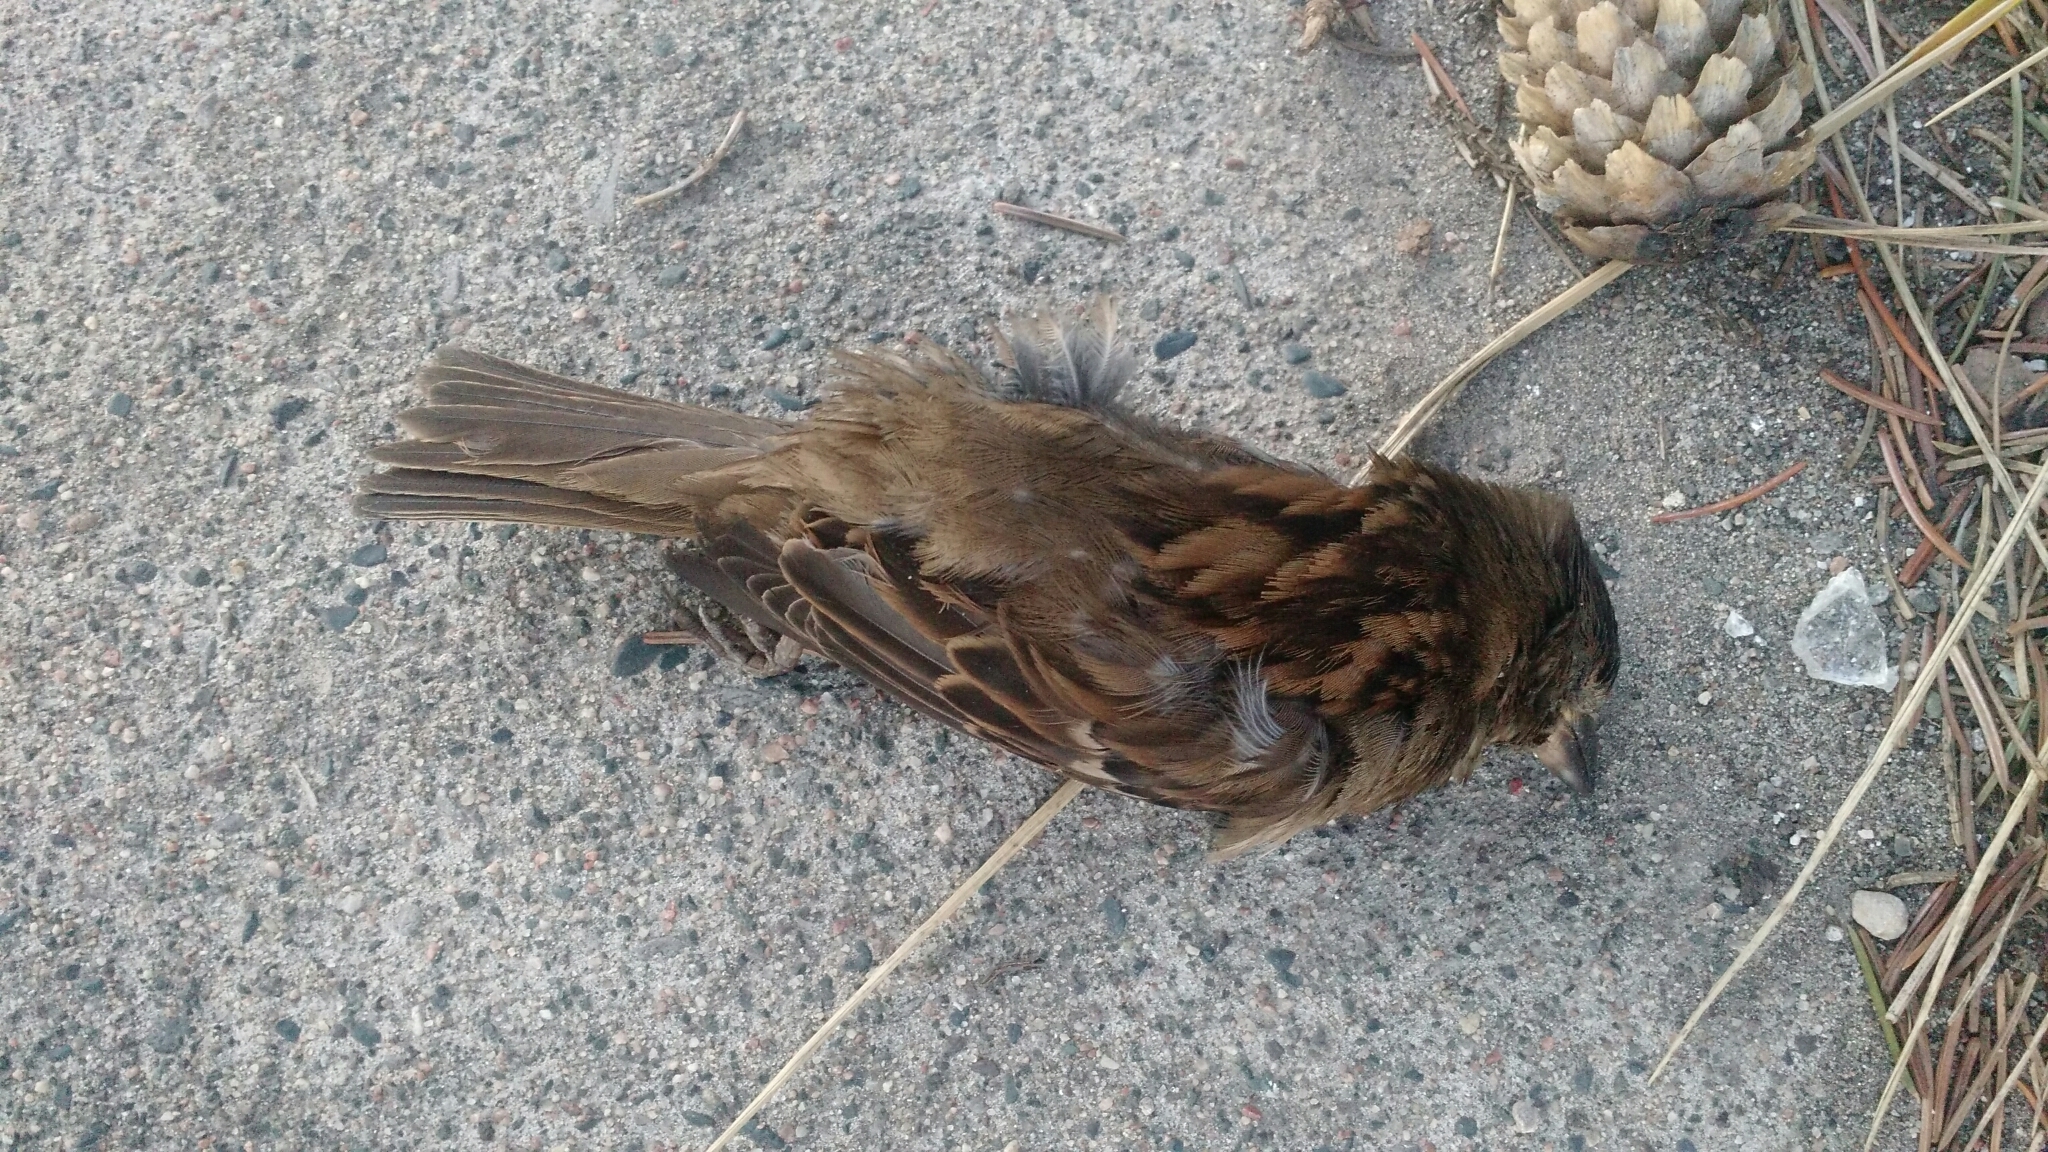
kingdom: Animalia
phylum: Chordata
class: Aves
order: Passeriformes
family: Passeridae
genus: Passer
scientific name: Passer domesticus
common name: House sparrow
